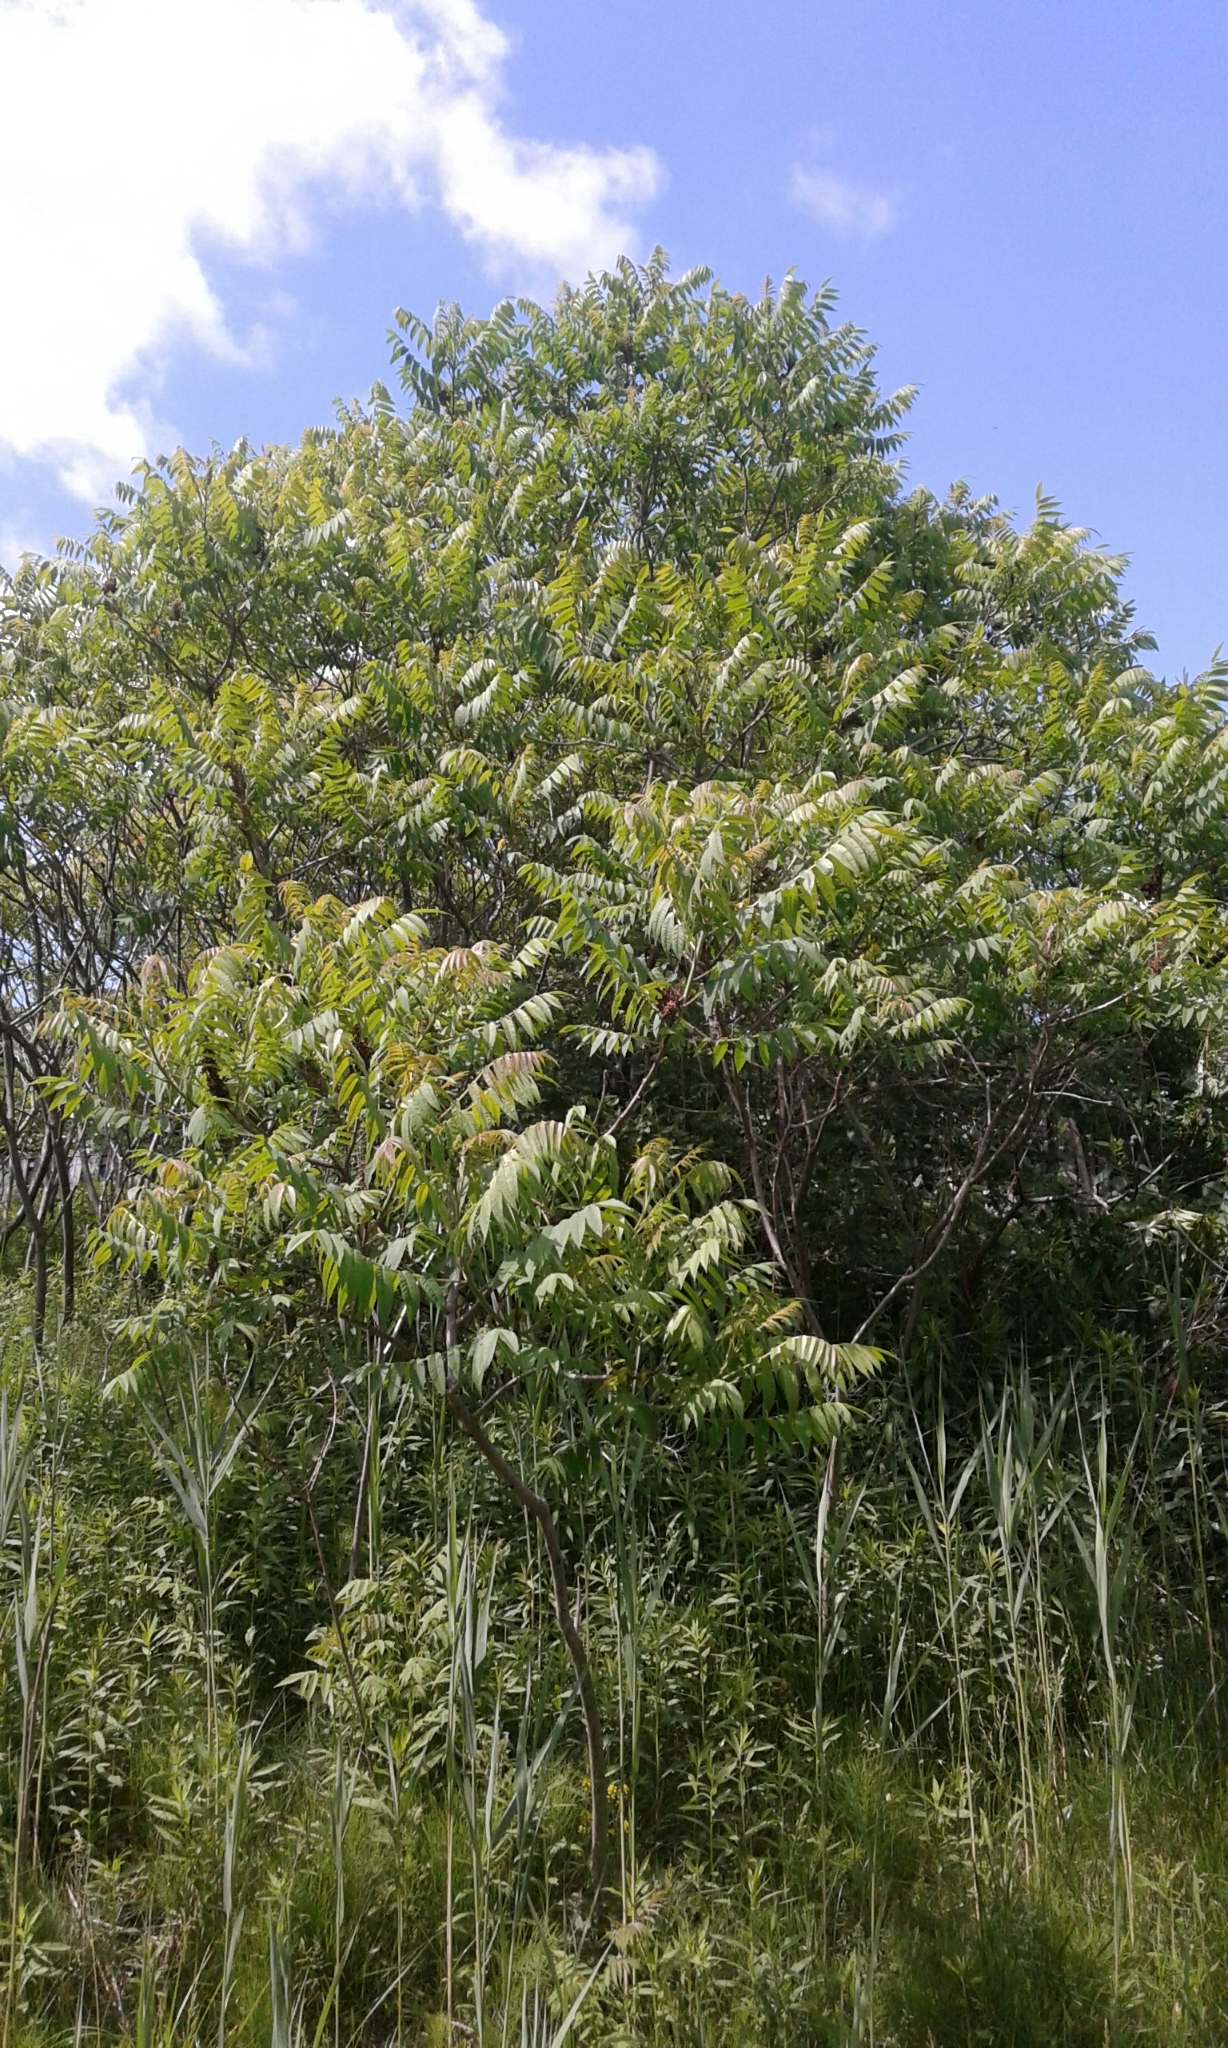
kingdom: Plantae
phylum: Tracheophyta
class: Magnoliopsida
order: Sapindales
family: Anacardiaceae
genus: Rhus
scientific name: Rhus typhina
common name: Staghorn sumac
